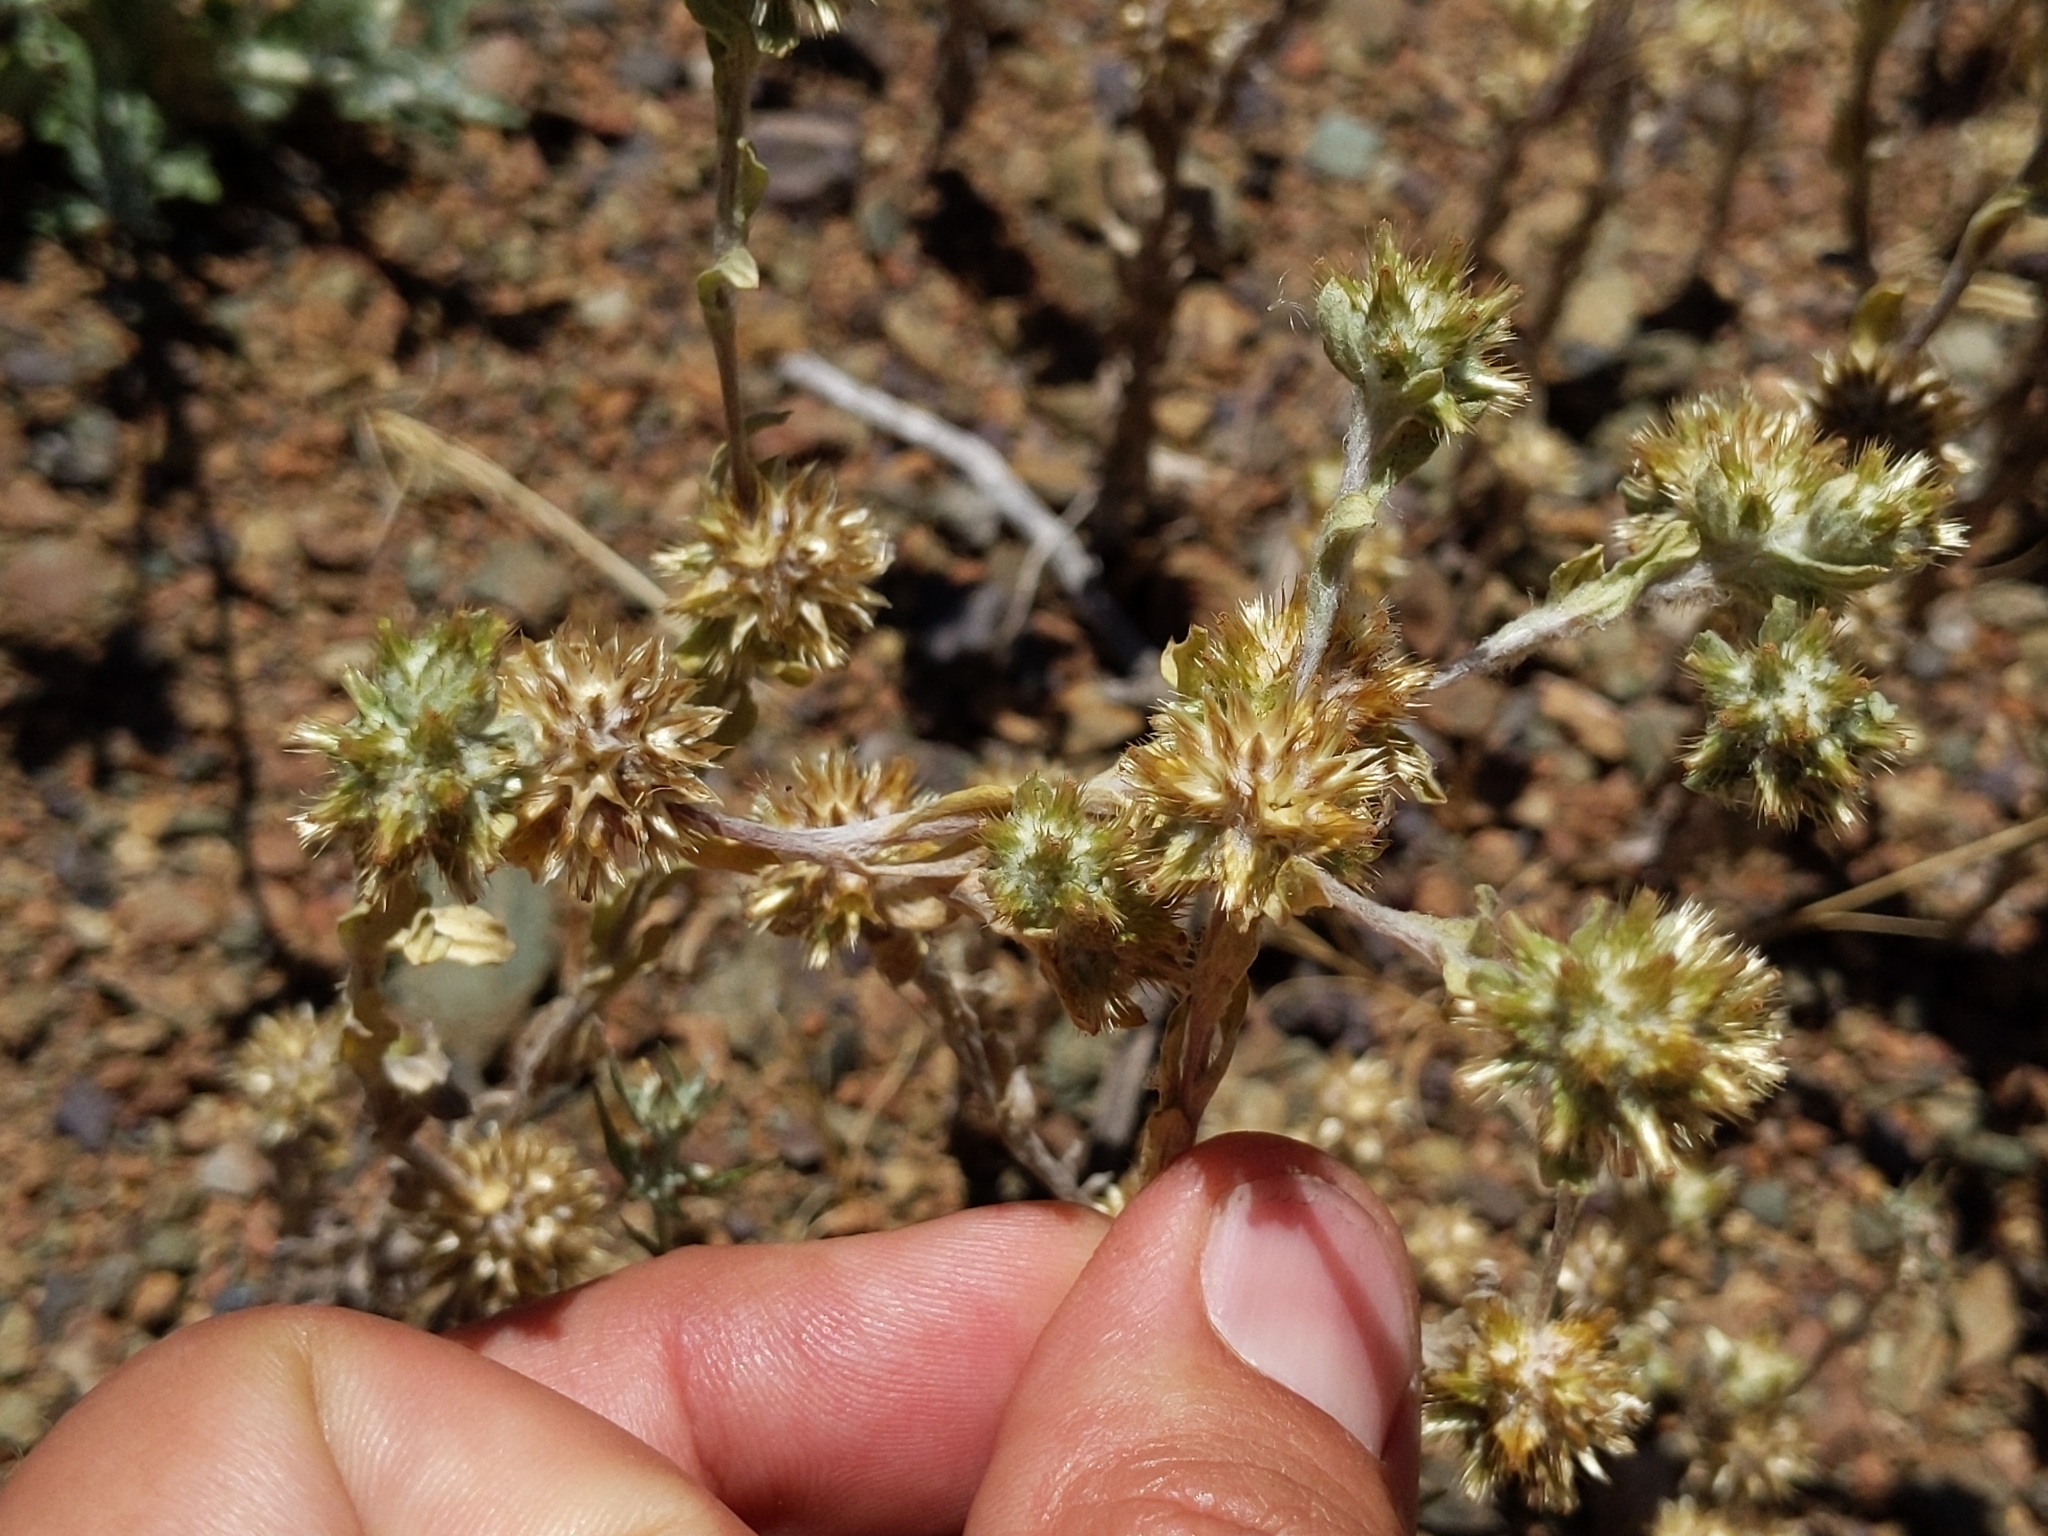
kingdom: Plantae
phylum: Tracheophyta
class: Magnoliopsida
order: Asterales
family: Asteraceae
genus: Filago
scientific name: Filago pyramidata
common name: Broad-leaved cudweed
